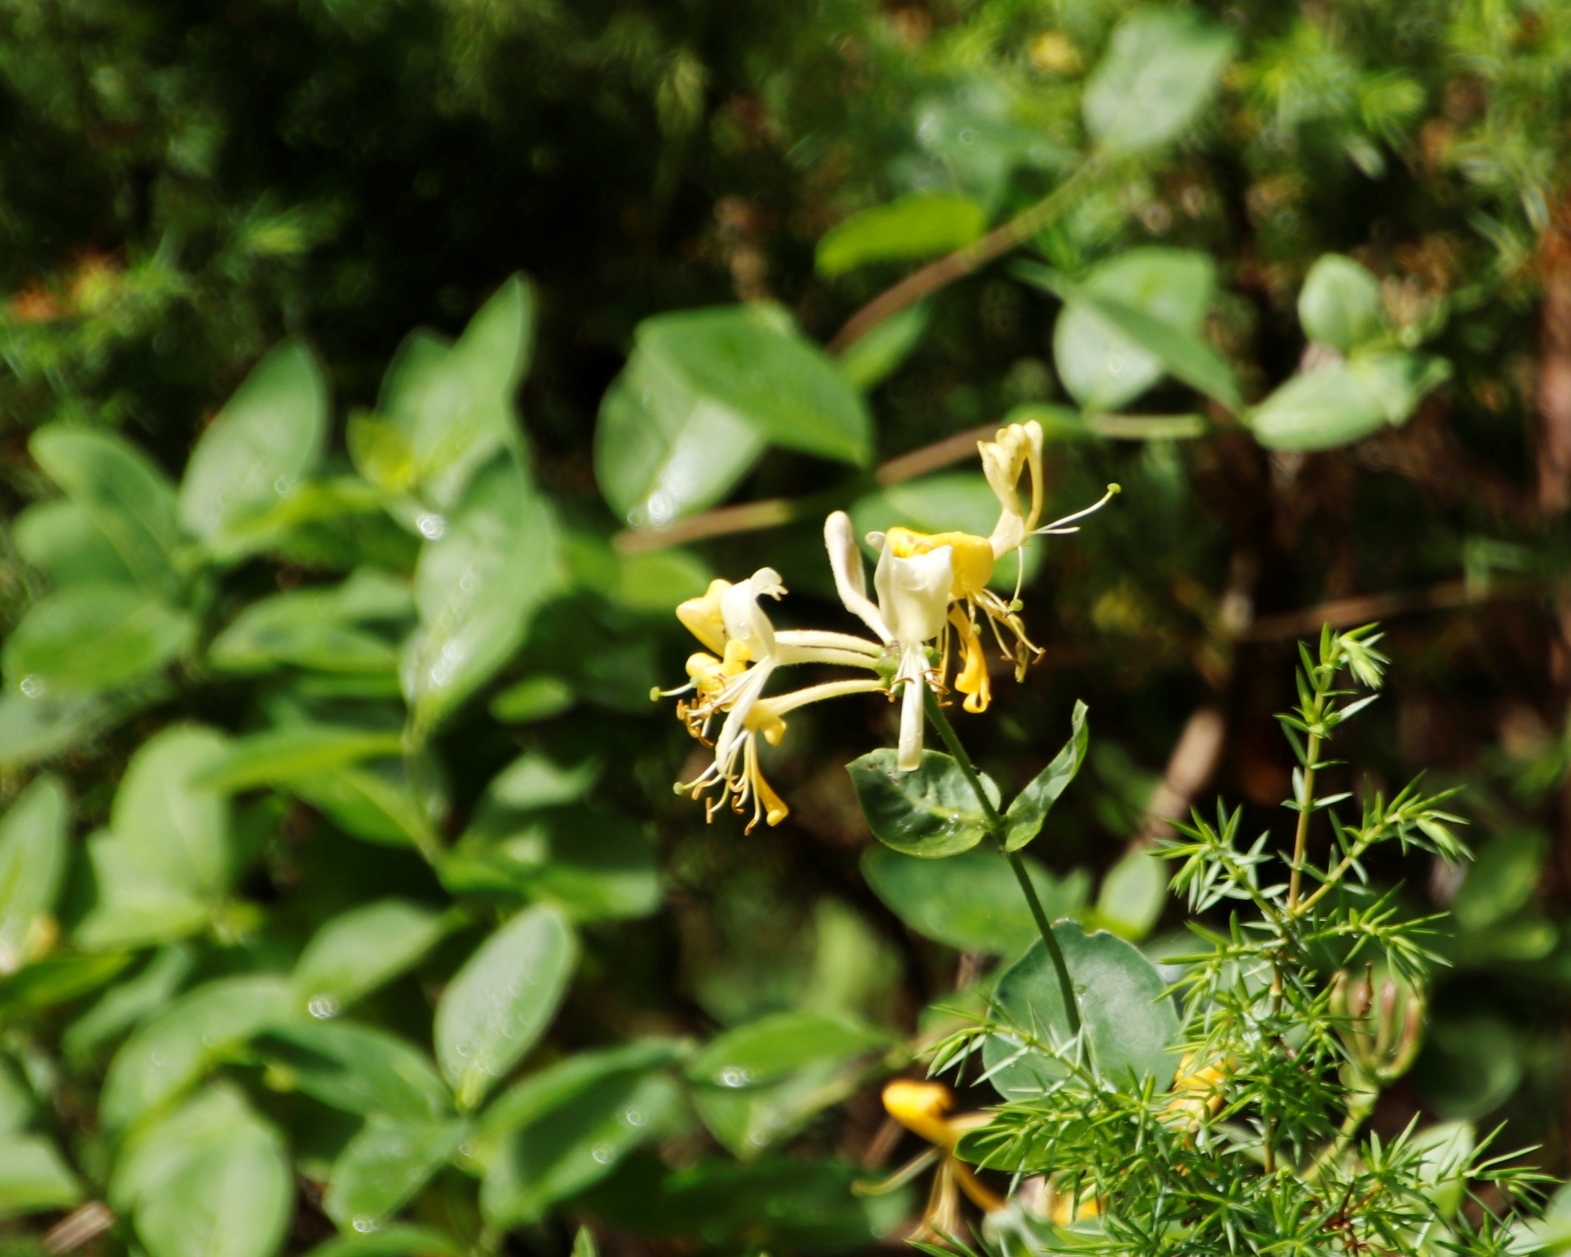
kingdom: Plantae
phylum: Tracheophyta
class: Magnoliopsida
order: Dipsacales
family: Caprifoliaceae
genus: Lonicera
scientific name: Lonicera periclymenum
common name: European honeysuckle
